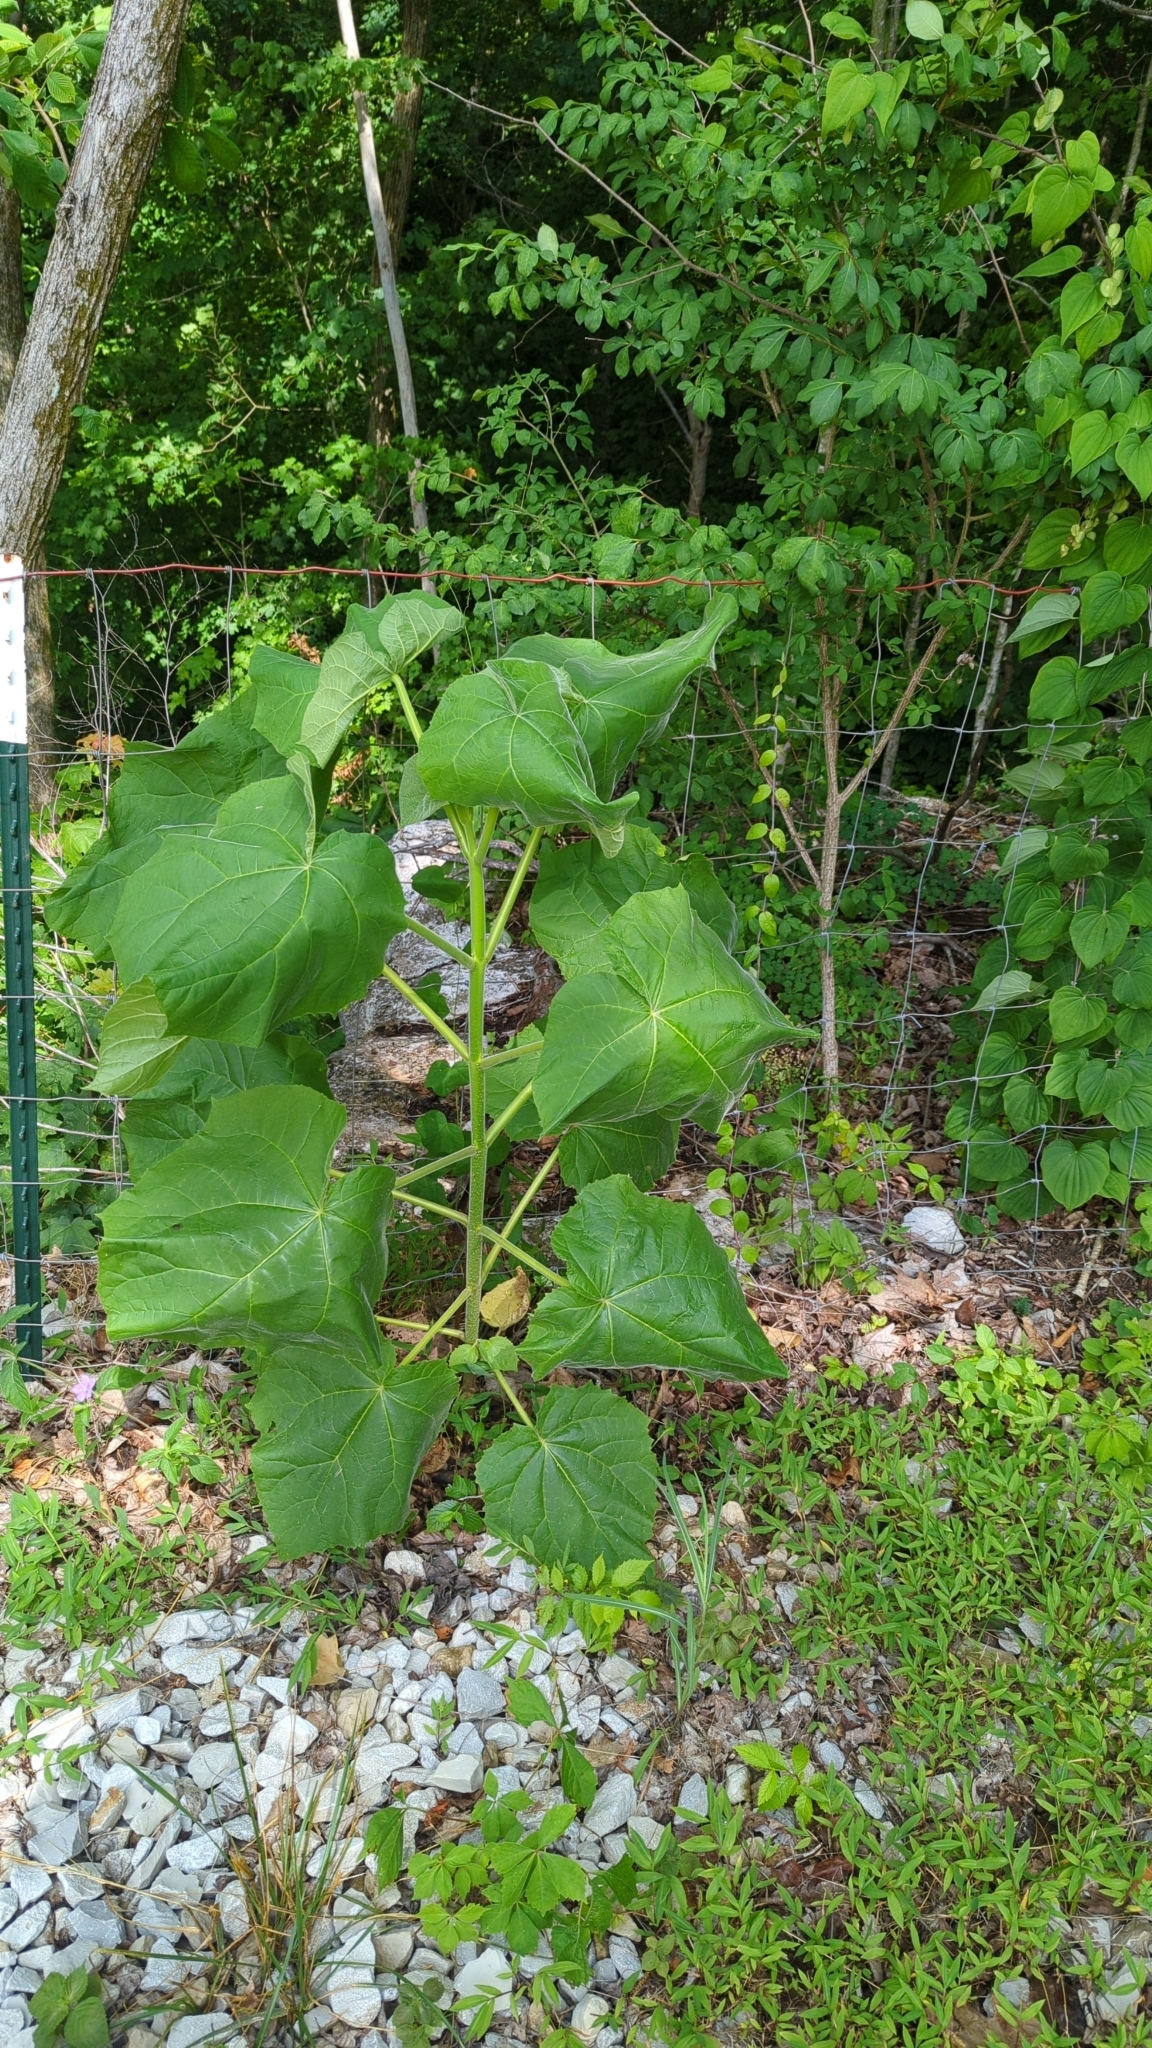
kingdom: Plantae
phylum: Tracheophyta
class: Magnoliopsida
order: Lamiales
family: Paulowniaceae
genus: Paulownia
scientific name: Paulownia tomentosa
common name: Foxglove-tree
